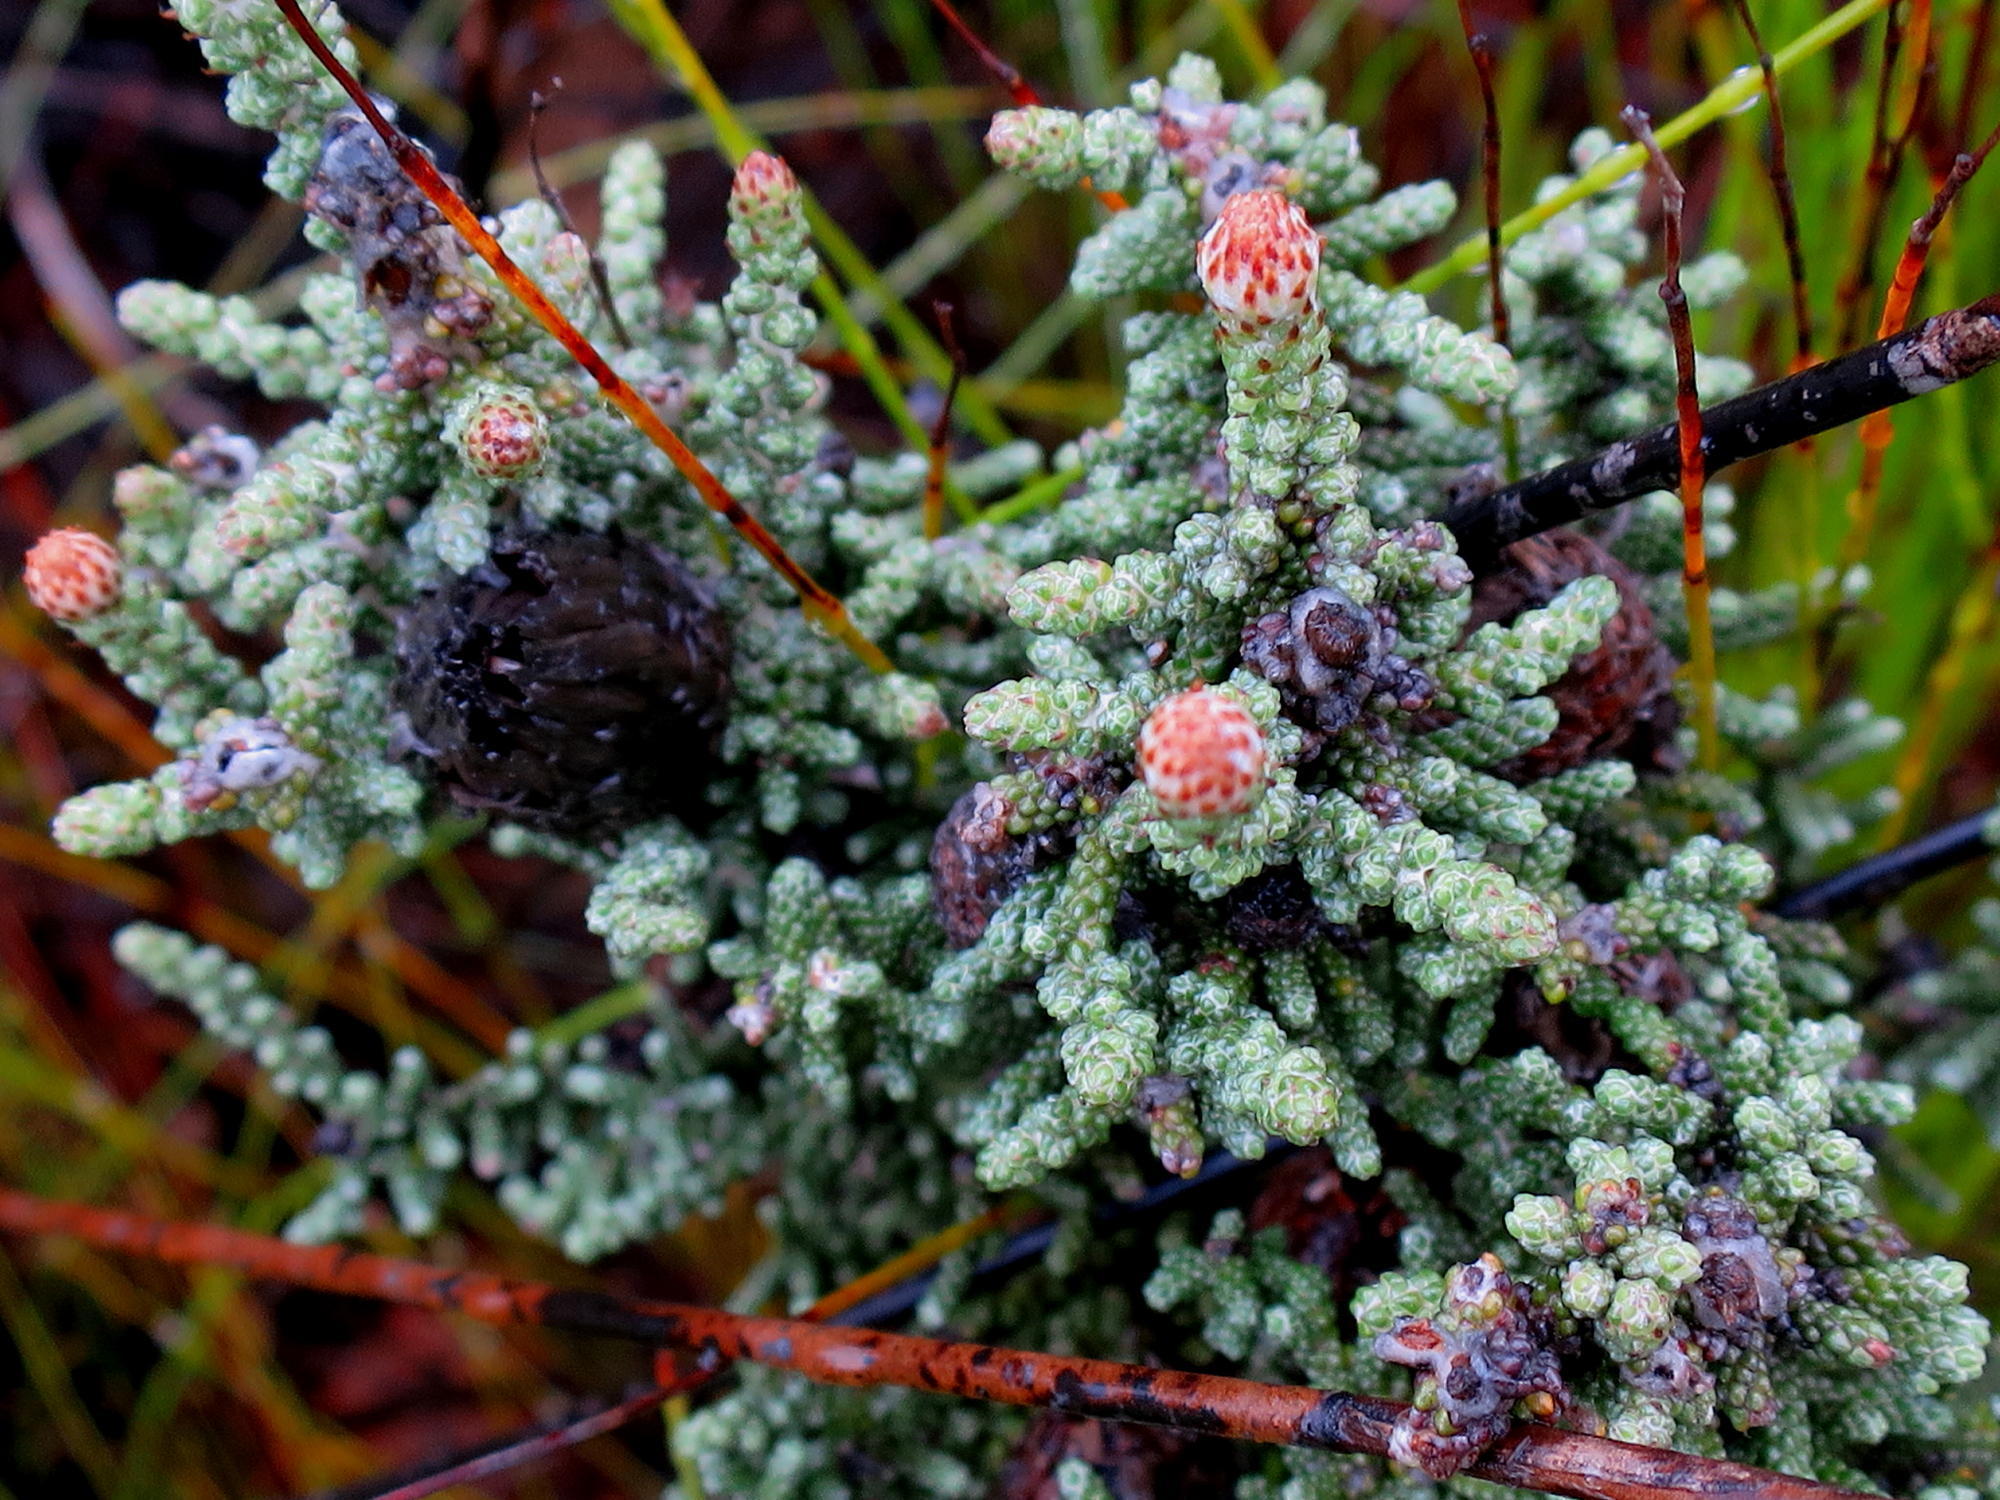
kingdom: Plantae
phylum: Tracheophyta
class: Magnoliopsida
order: Asterales
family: Asteraceae
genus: Phaenocoma
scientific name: Phaenocoma prolifera
